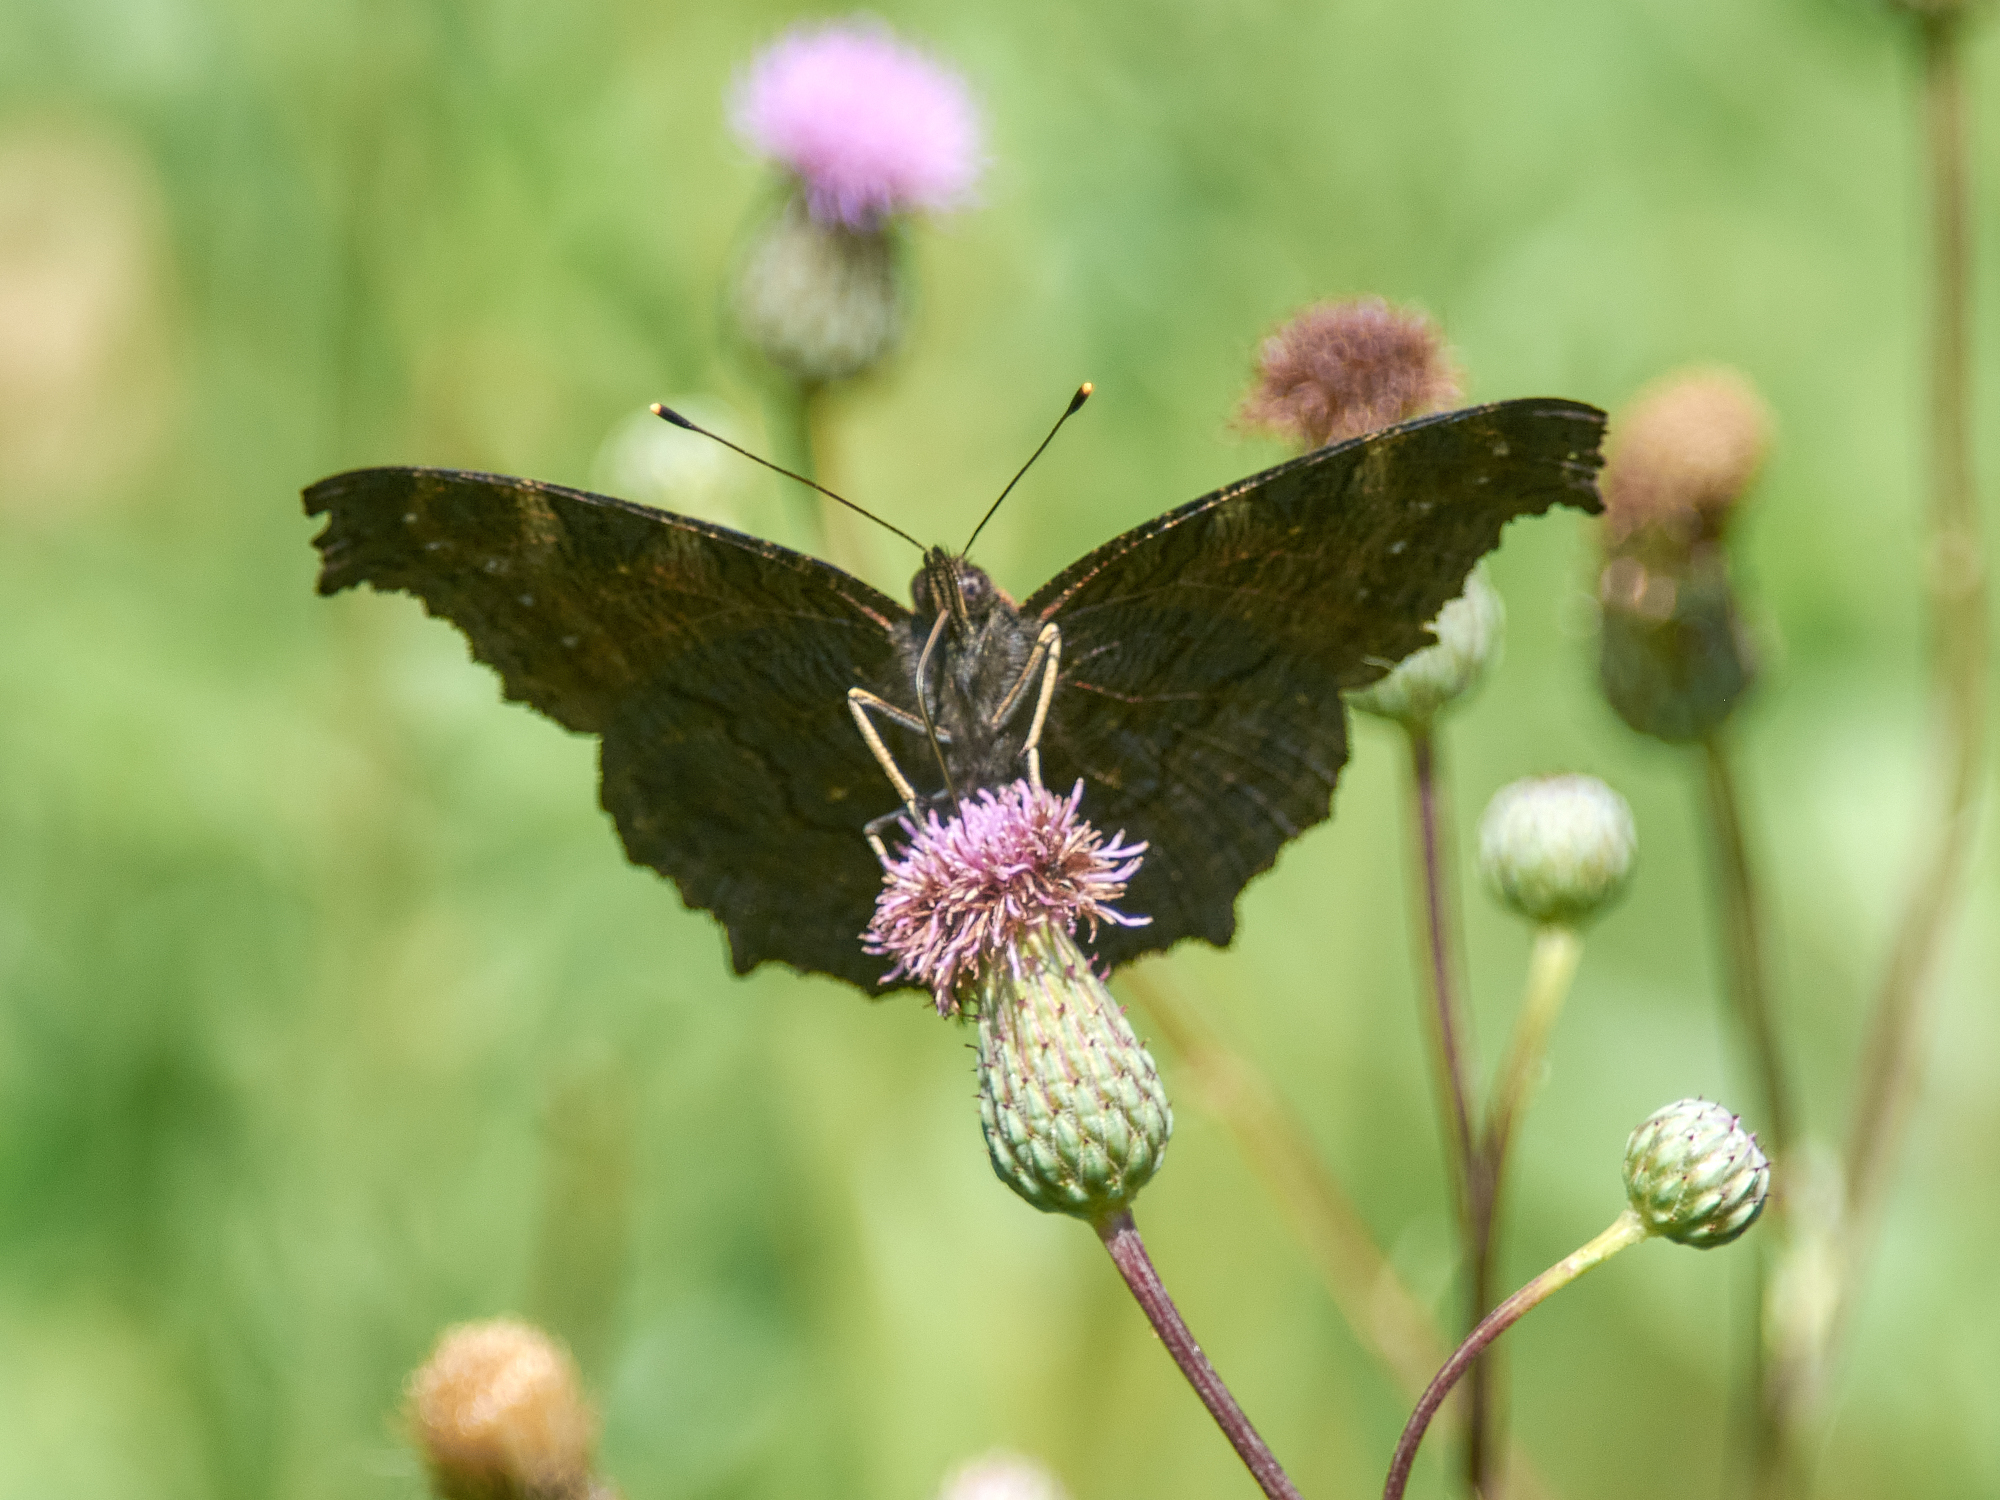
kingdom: Animalia
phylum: Arthropoda
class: Insecta
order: Lepidoptera
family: Nymphalidae
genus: Aglais
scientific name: Aglais io
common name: Peacock
